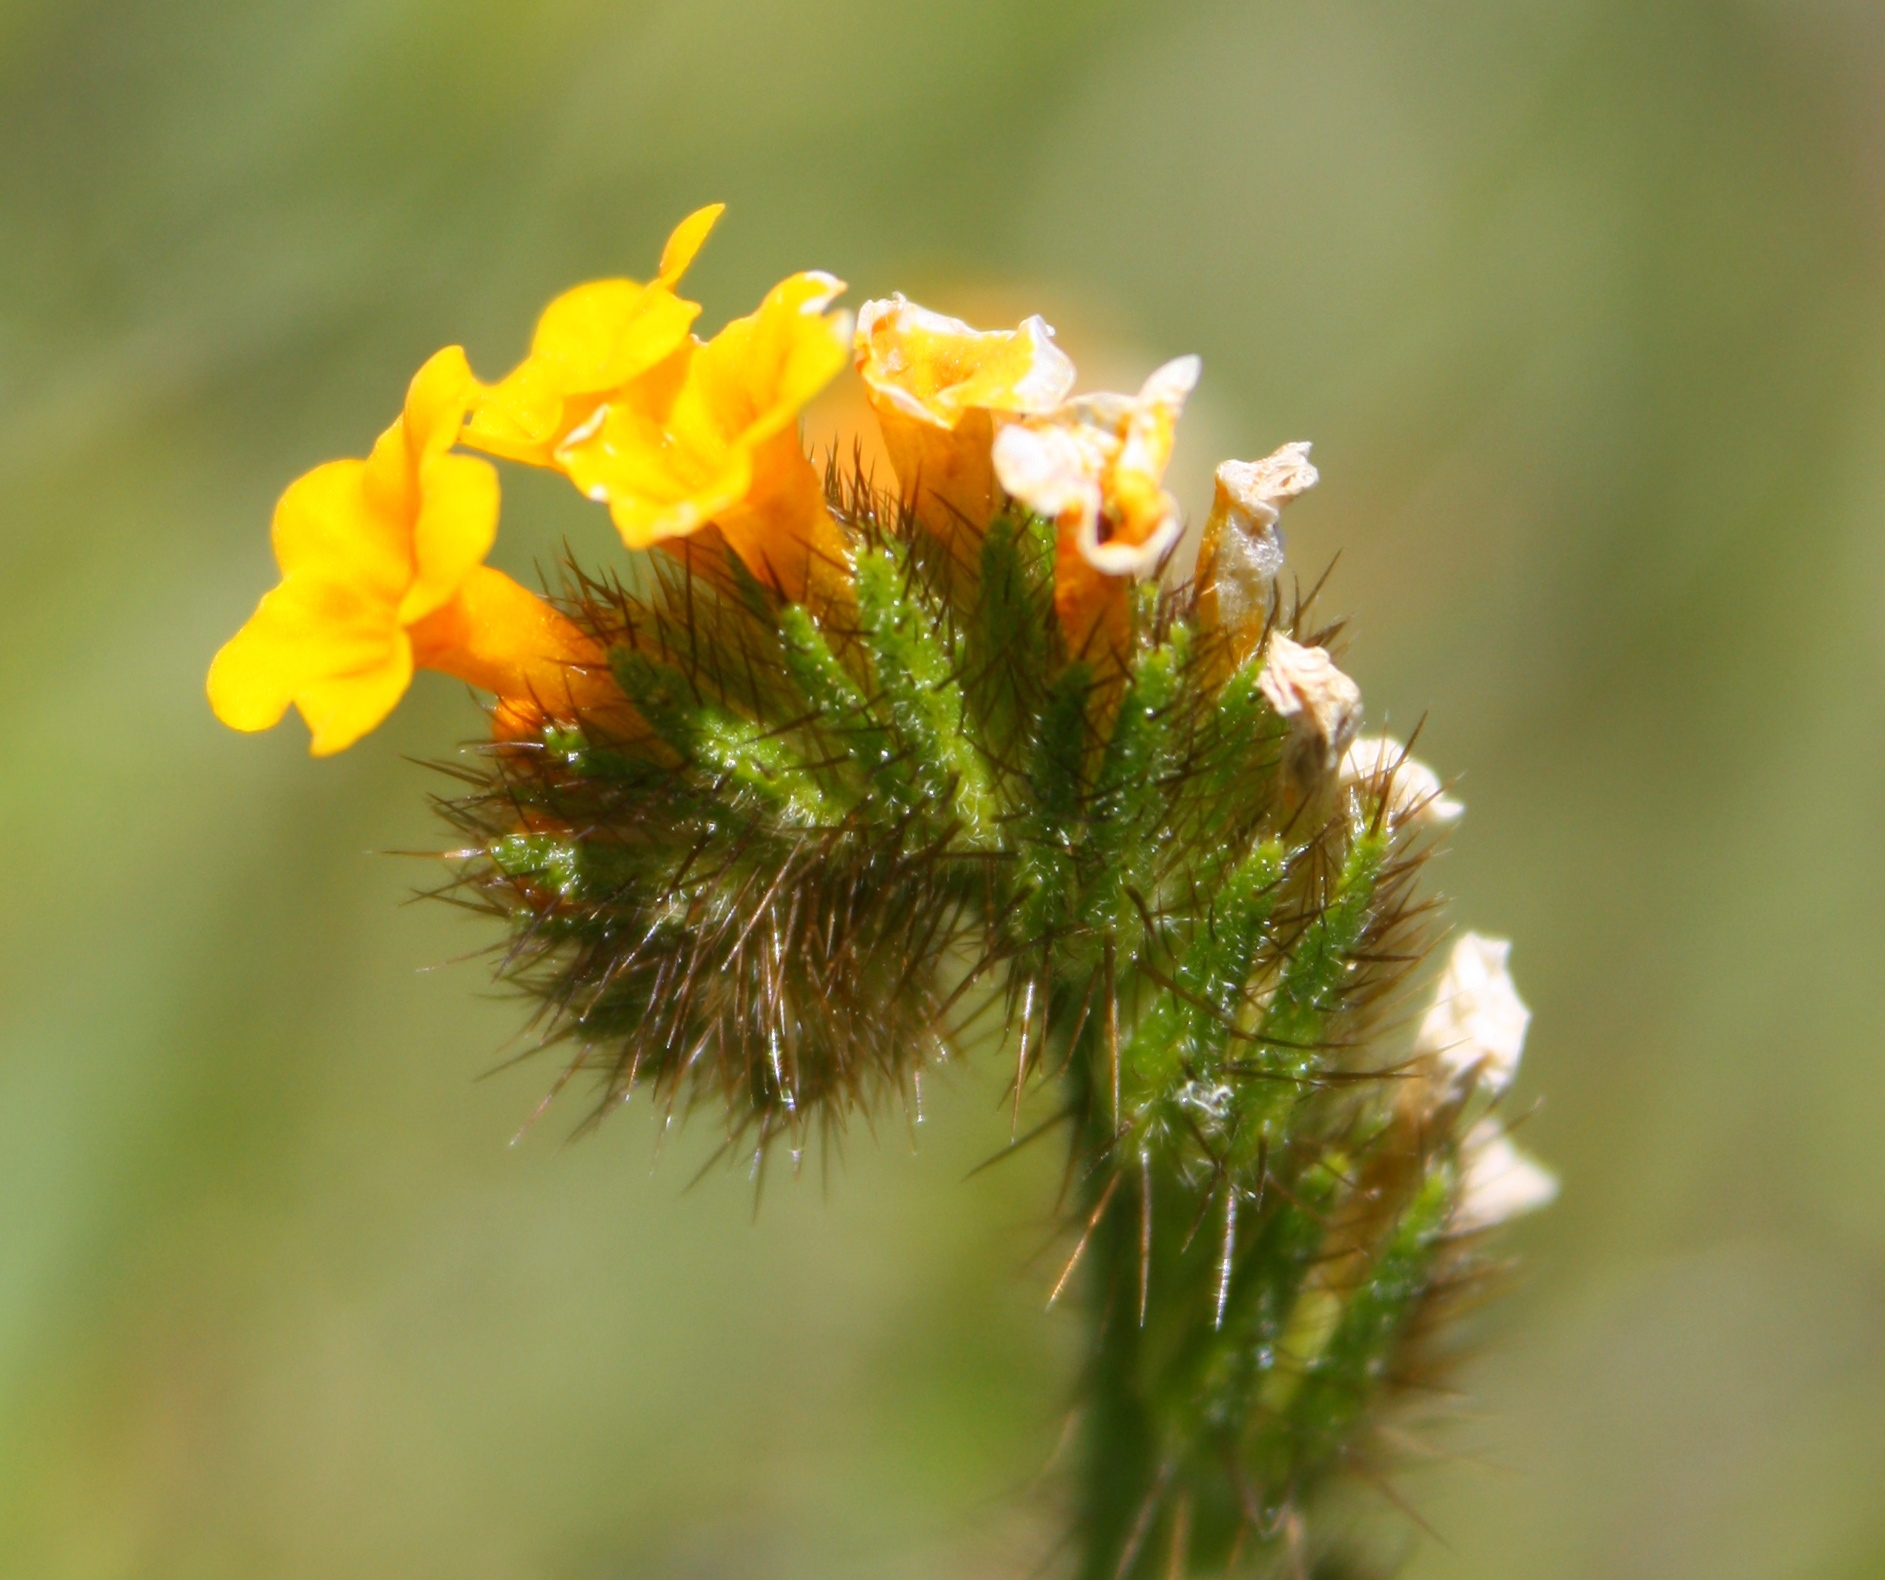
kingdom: Plantae
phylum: Tracheophyta
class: Magnoliopsida
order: Boraginales
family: Boraginaceae
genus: Amsinckia
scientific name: Amsinckia menziesii
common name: Menzies' fiddleneck
